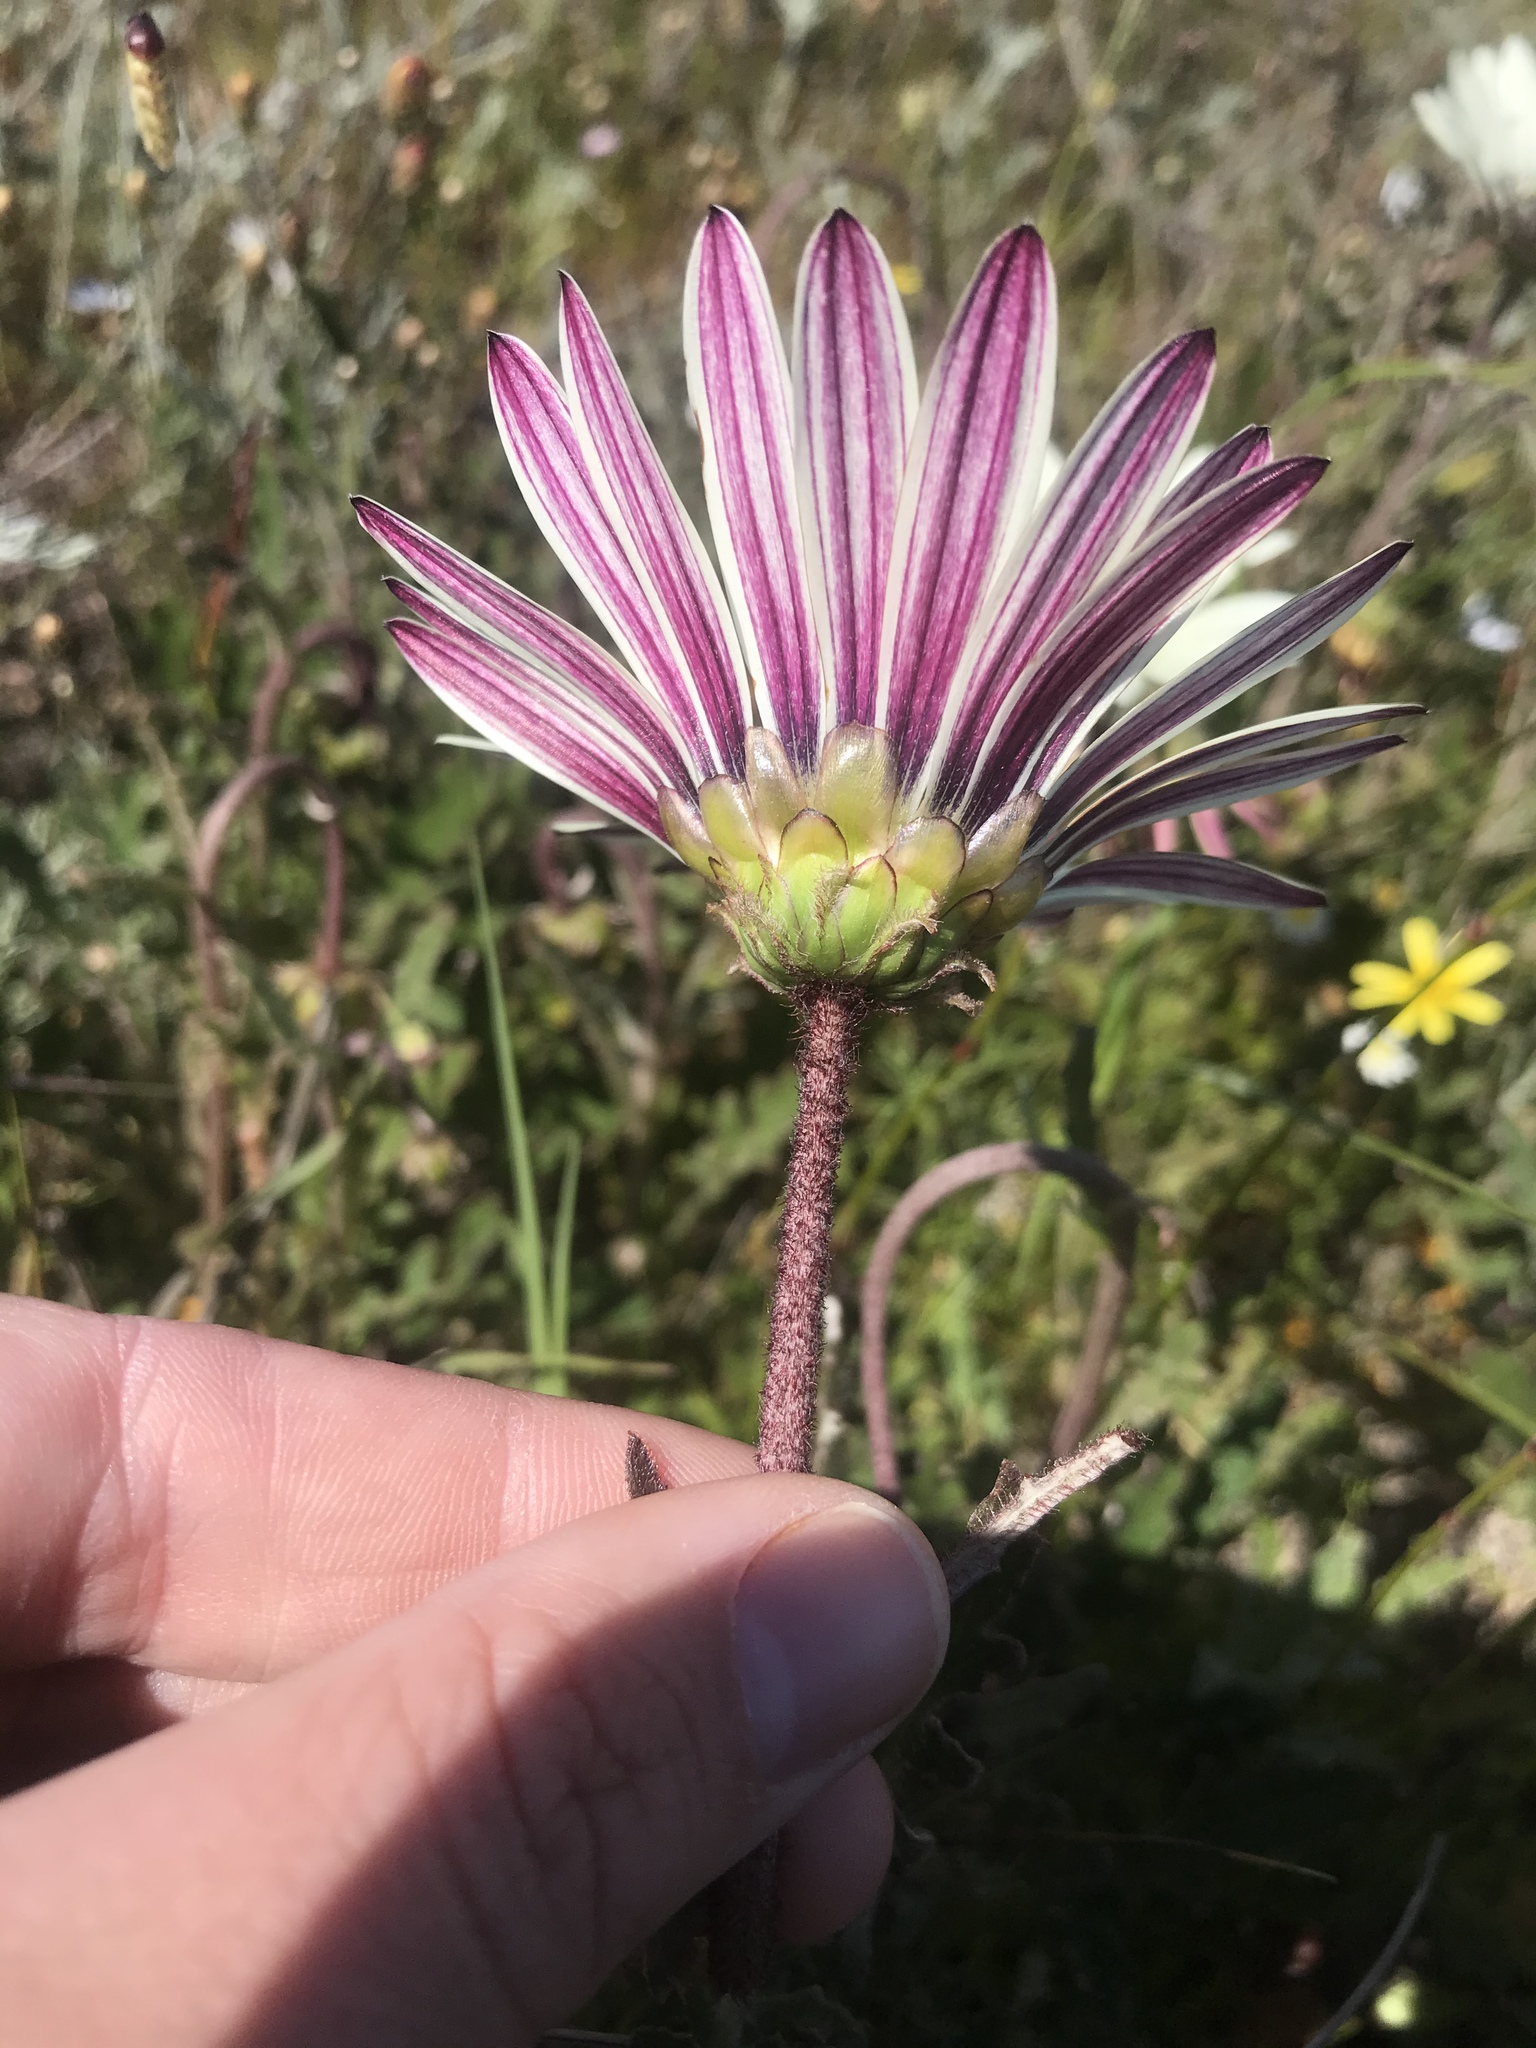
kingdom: Plantae
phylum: Tracheophyta
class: Magnoliopsida
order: Asterales
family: Asteraceae
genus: Arctotis
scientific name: Arctotis formosa
